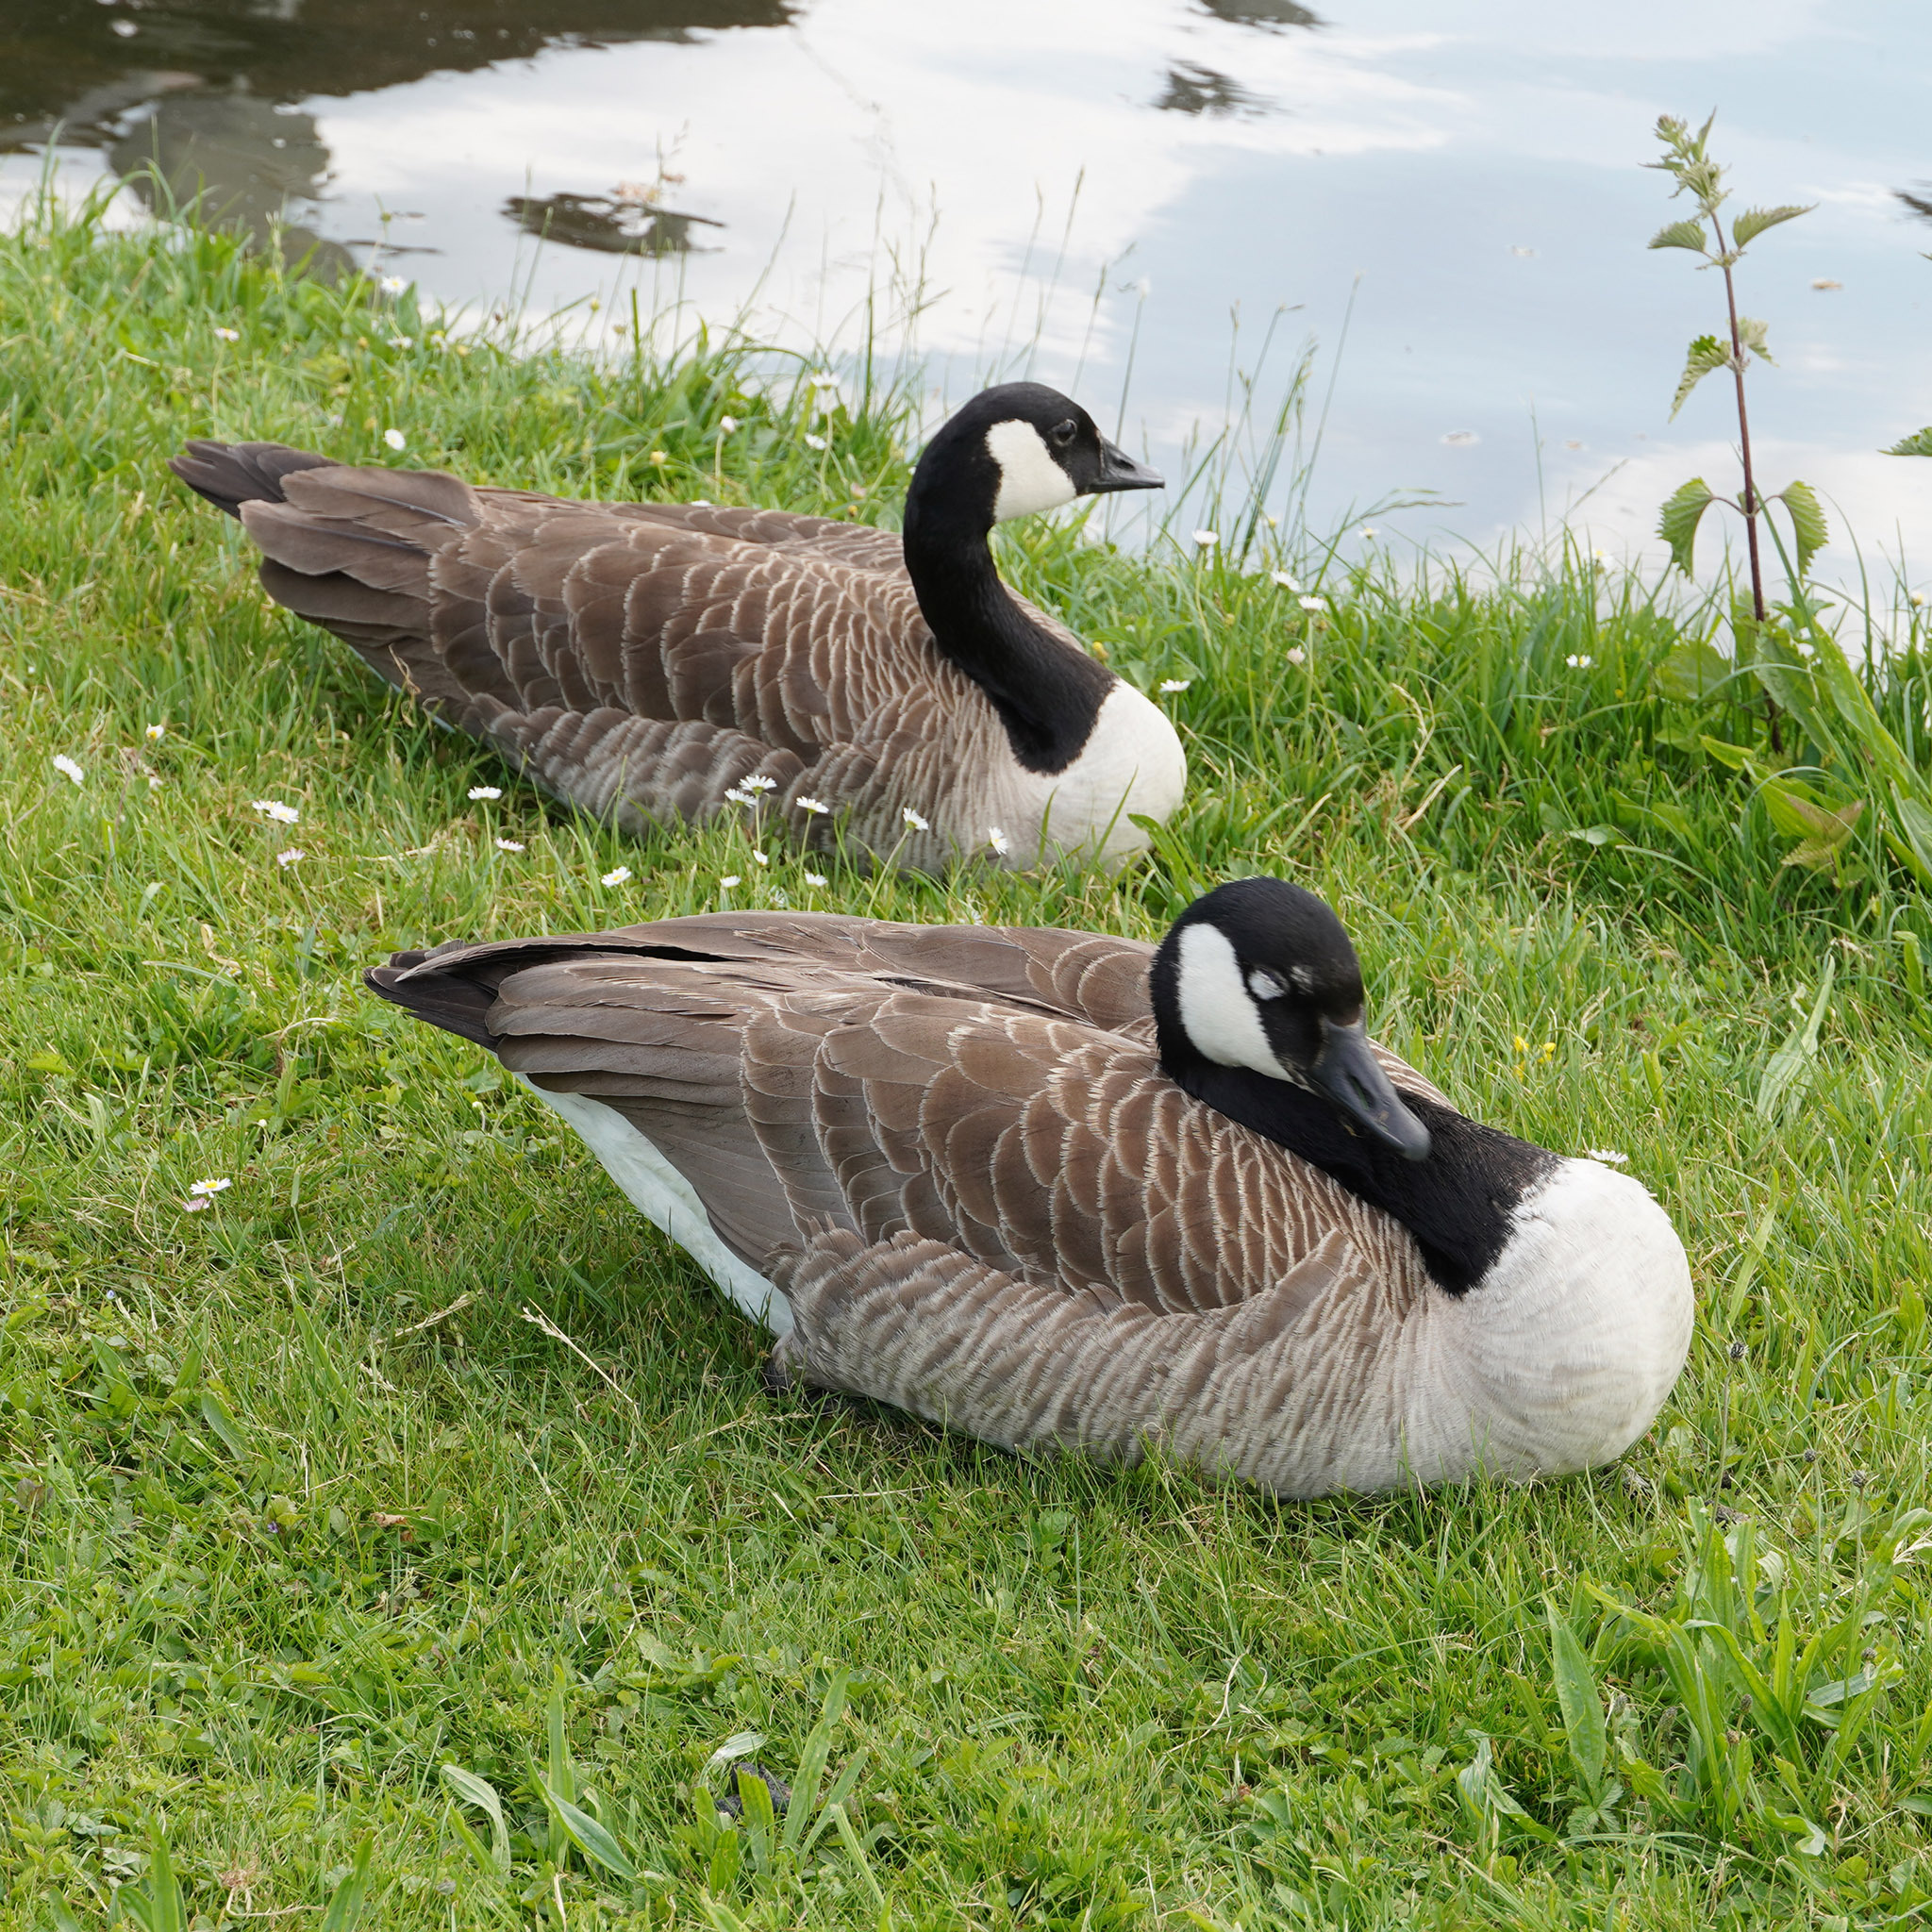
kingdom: Animalia
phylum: Chordata
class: Aves
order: Anseriformes
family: Anatidae
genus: Branta
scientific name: Branta canadensis
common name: Canada goose
